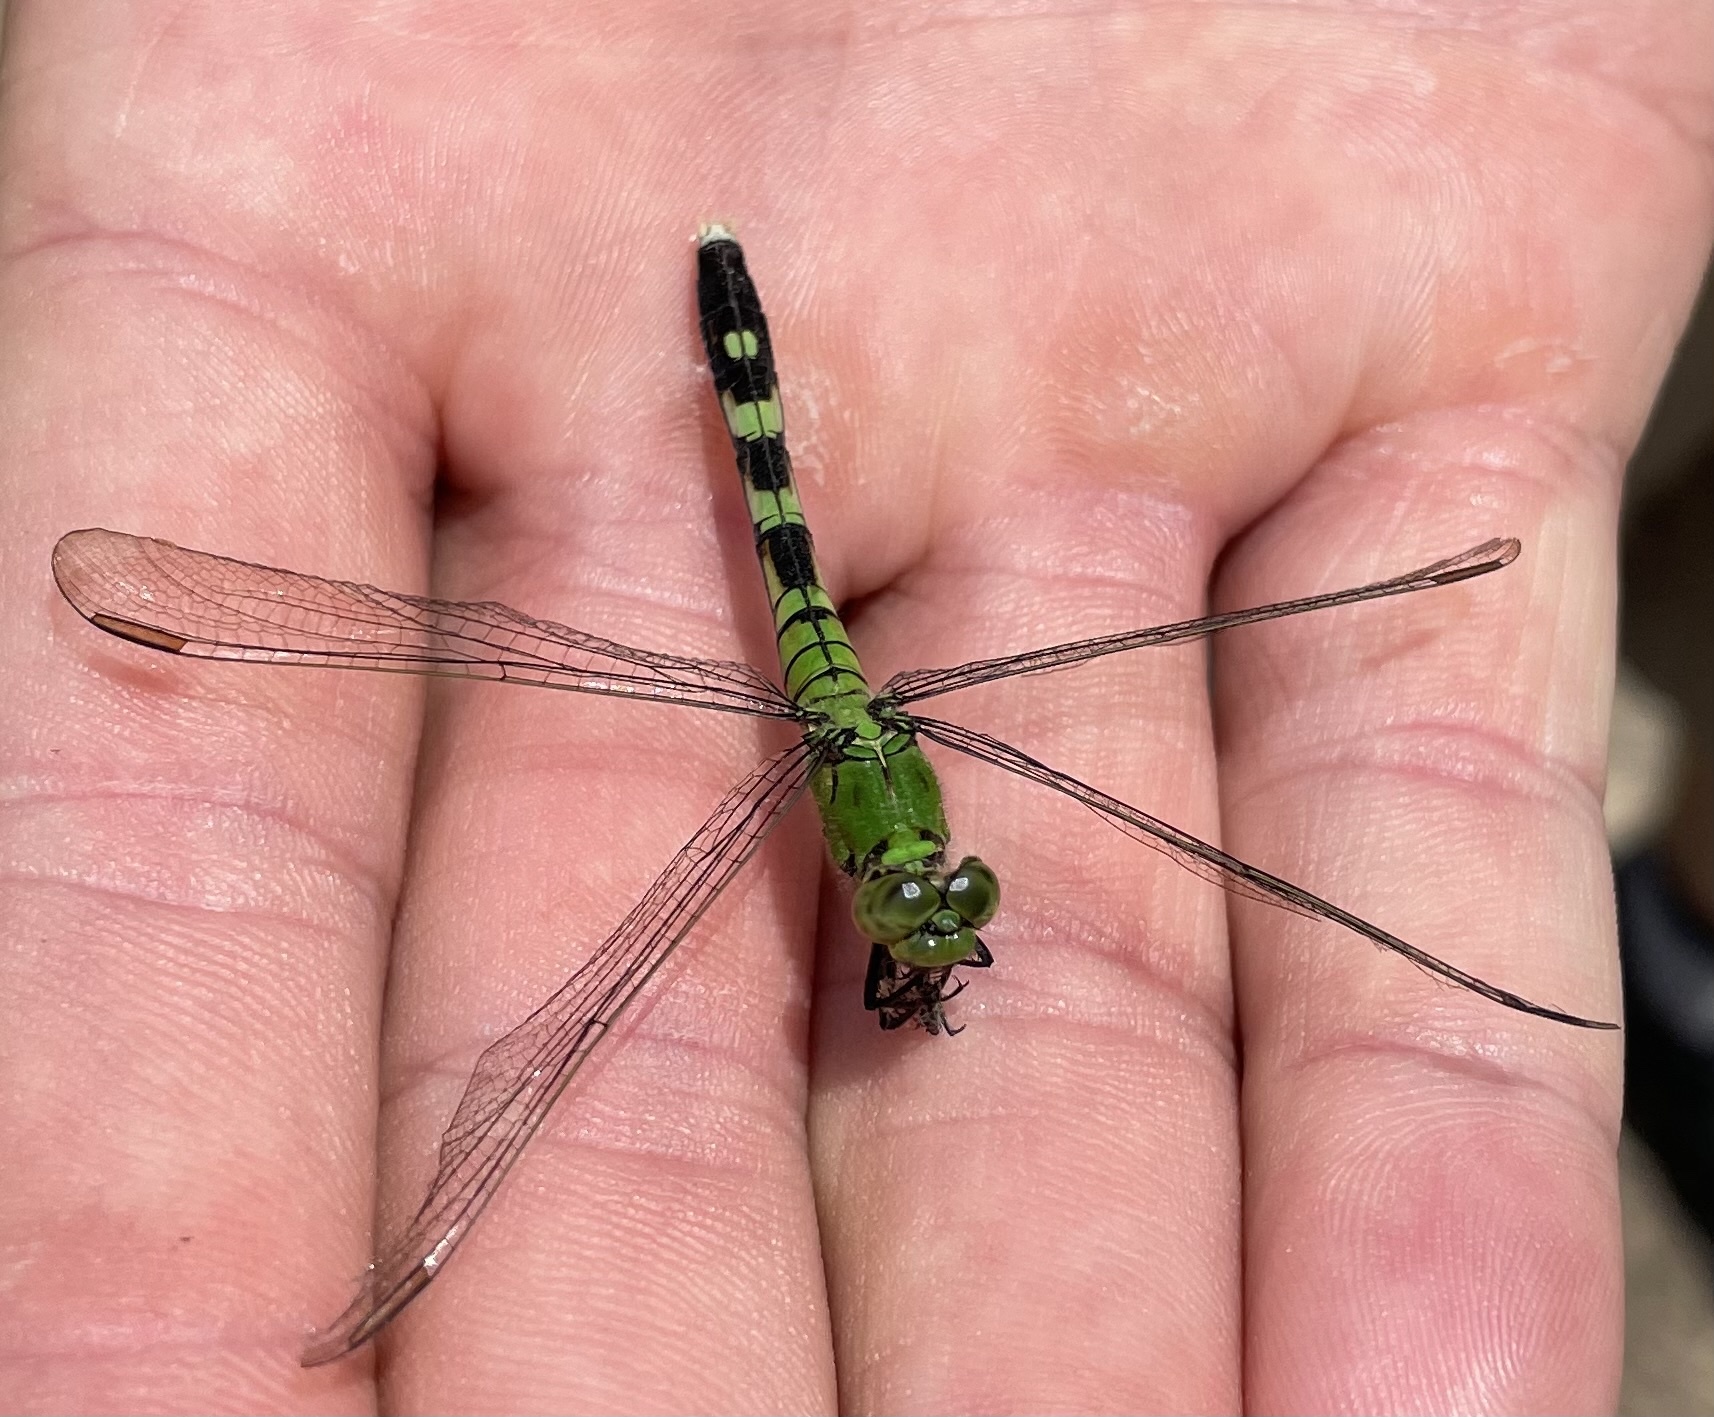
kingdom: Animalia
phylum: Arthropoda
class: Insecta
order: Odonata
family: Libellulidae
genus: Erythemis
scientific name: Erythemis simplicicollis
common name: Eastern pondhawk
